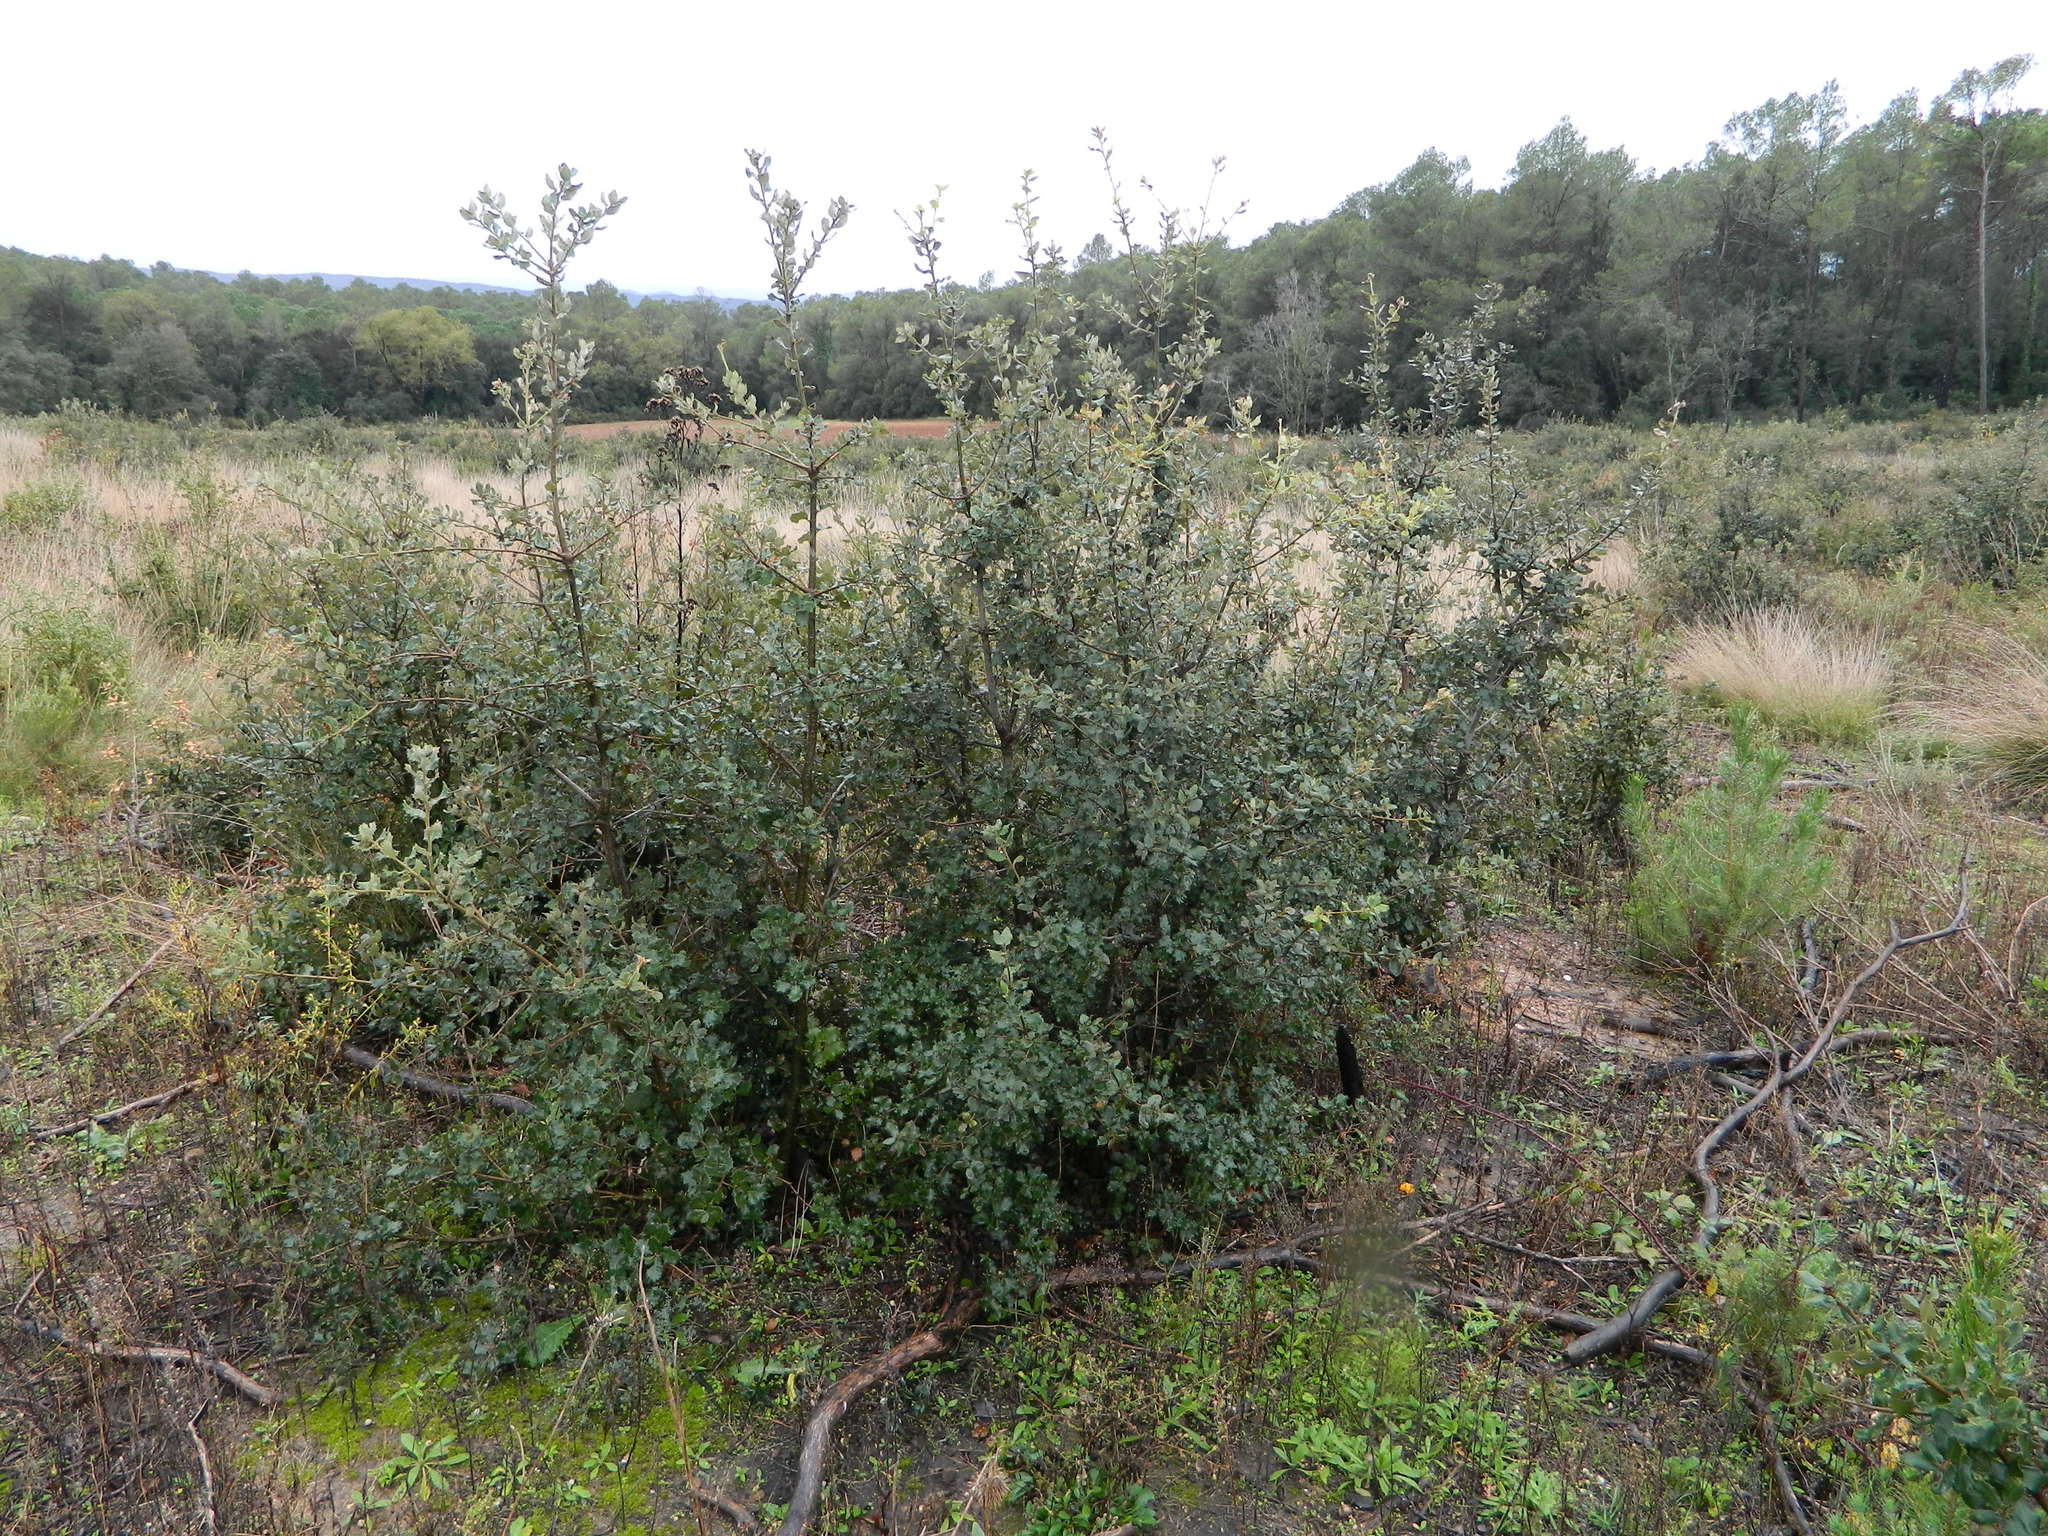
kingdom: Plantae
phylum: Tracheophyta
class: Magnoliopsida
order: Fagales
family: Fagaceae
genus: Quercus
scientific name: Quercus ilex
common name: Evergreen oak
